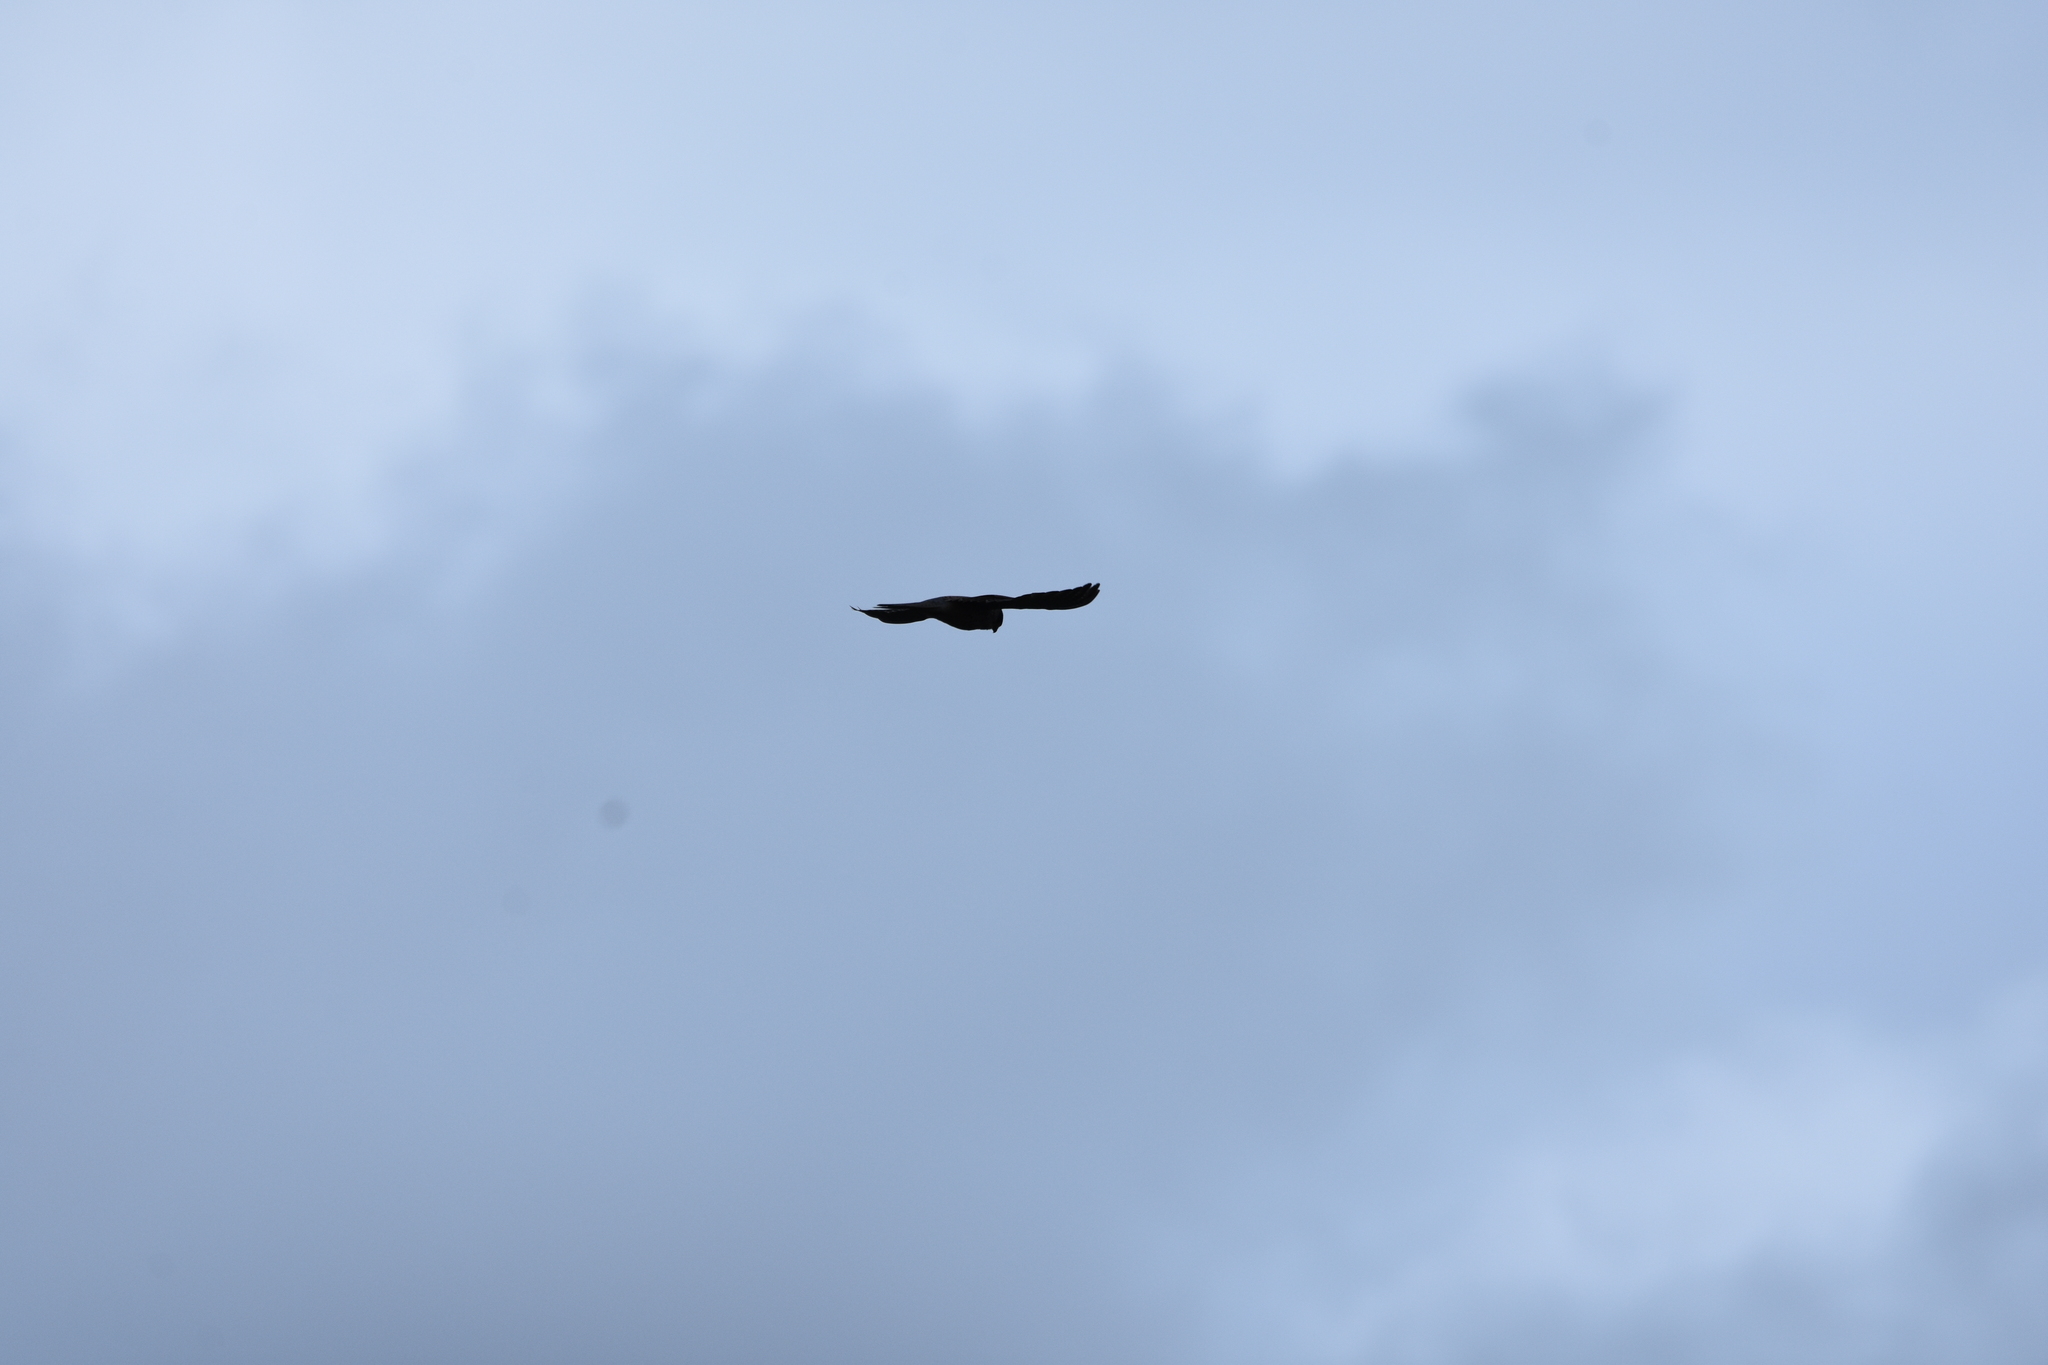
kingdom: Animalia
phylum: Chordata
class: Aves
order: Falconiformes
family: Falconidae
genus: Falco
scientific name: Falco tinnunculus
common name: Common kestrel
